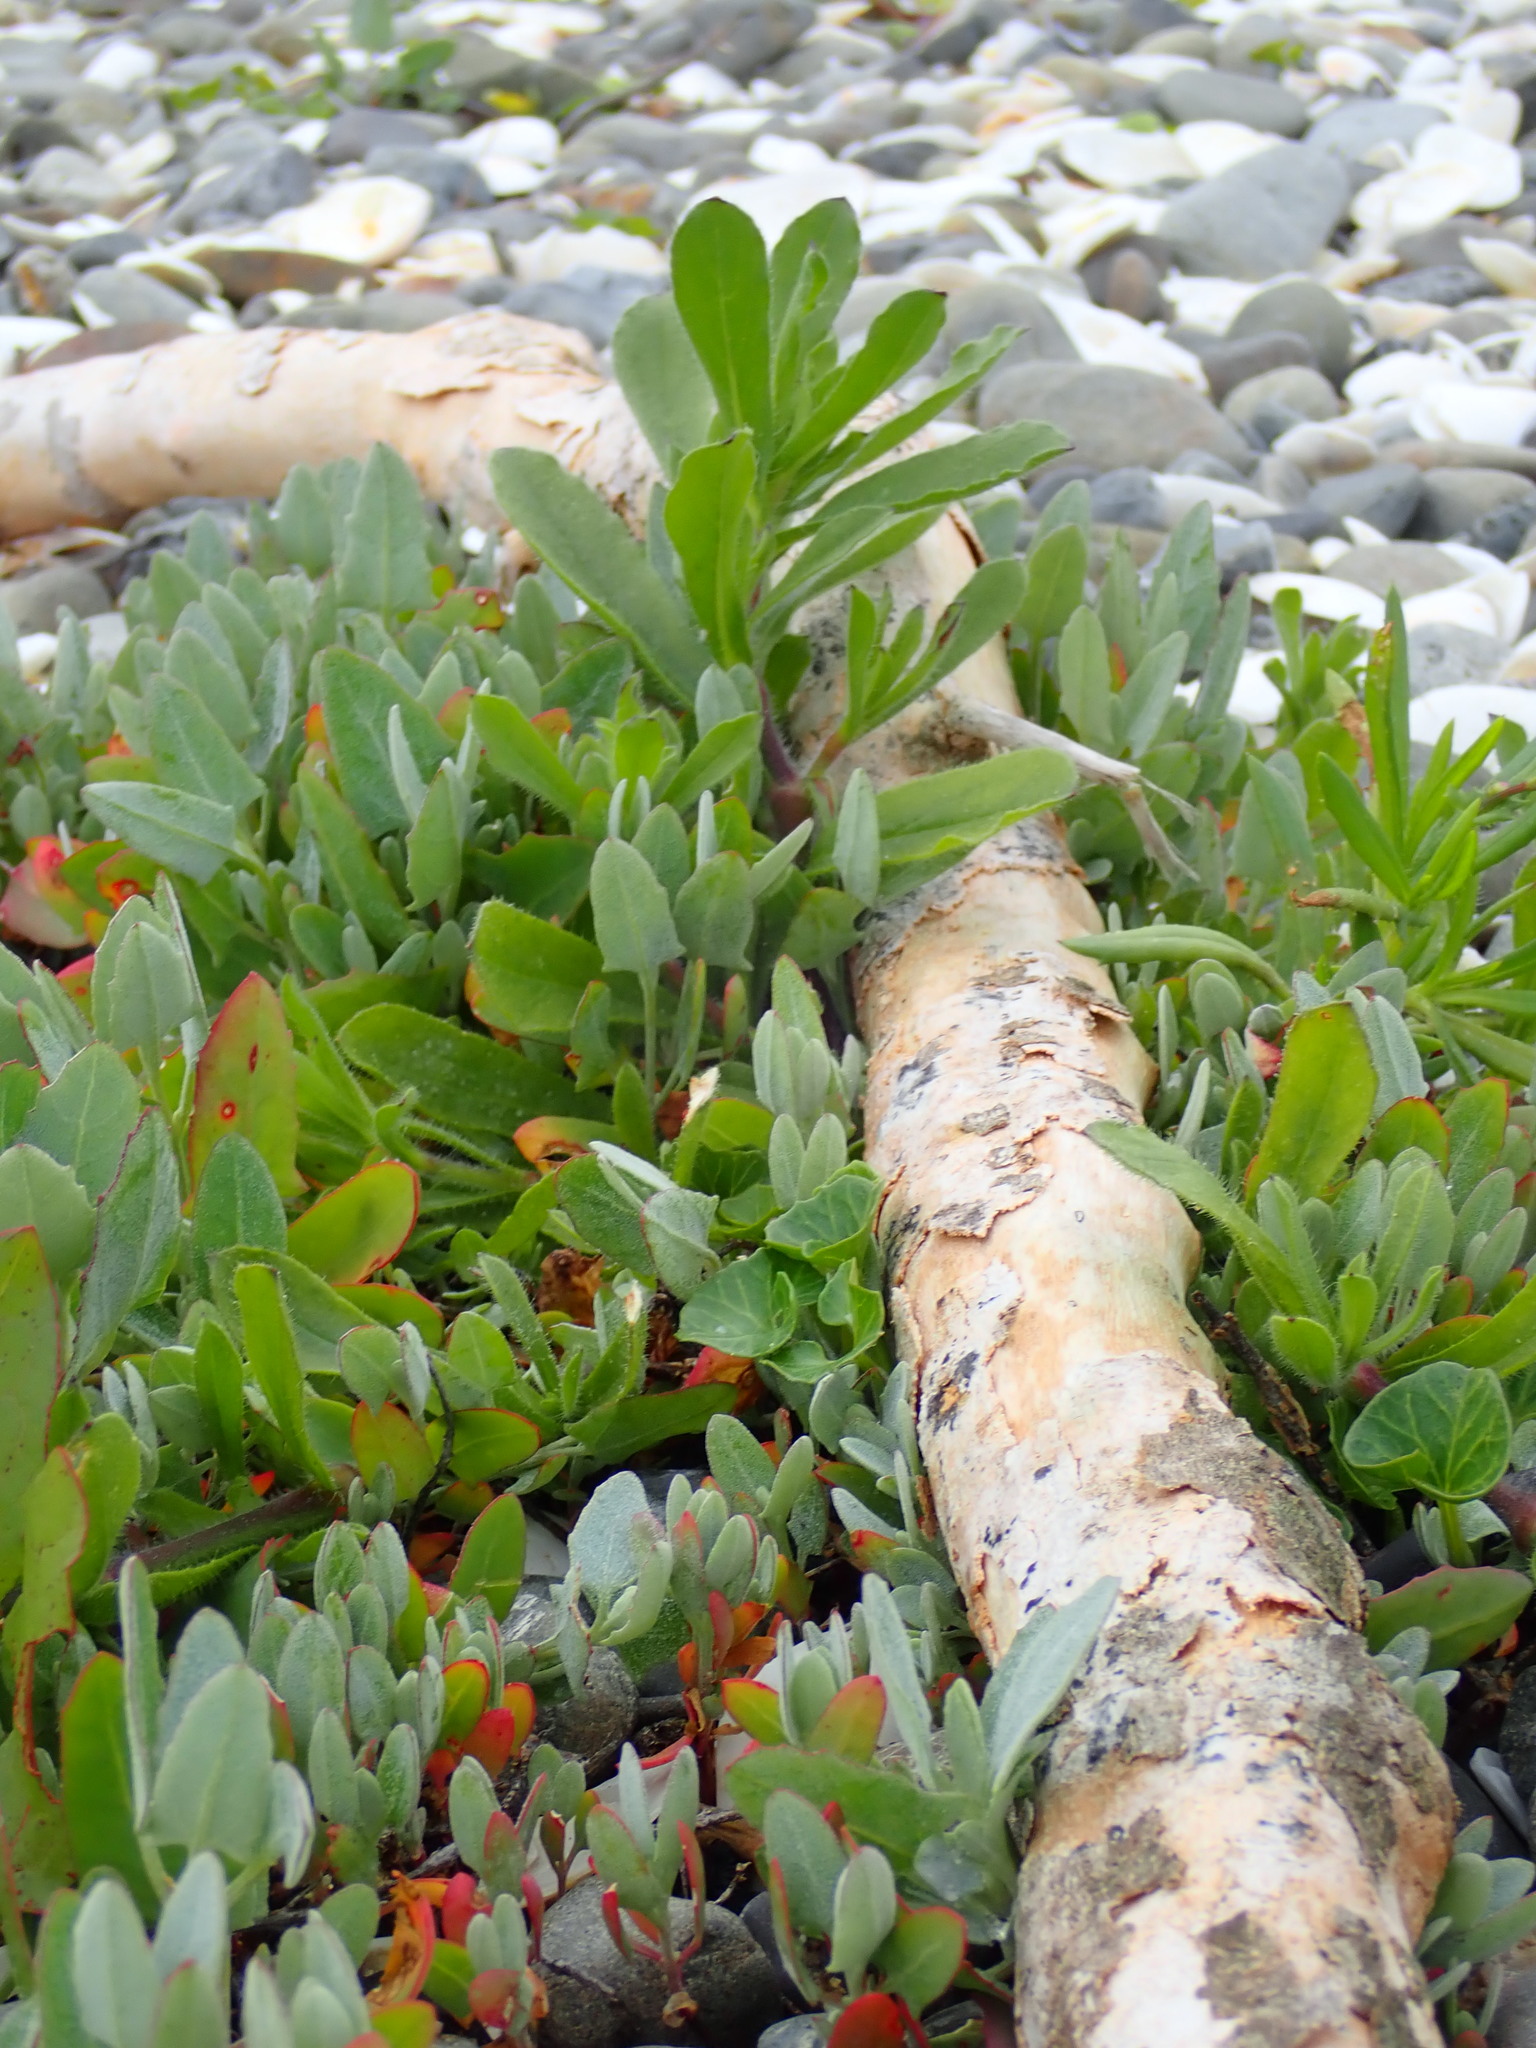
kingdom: Plantae
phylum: Tracheophyta
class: Magnoliopsida
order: Caryophyllales
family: Amaranthaceae
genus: Atriplex
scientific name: Atriplex prostrata
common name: Spear-leaved orache
